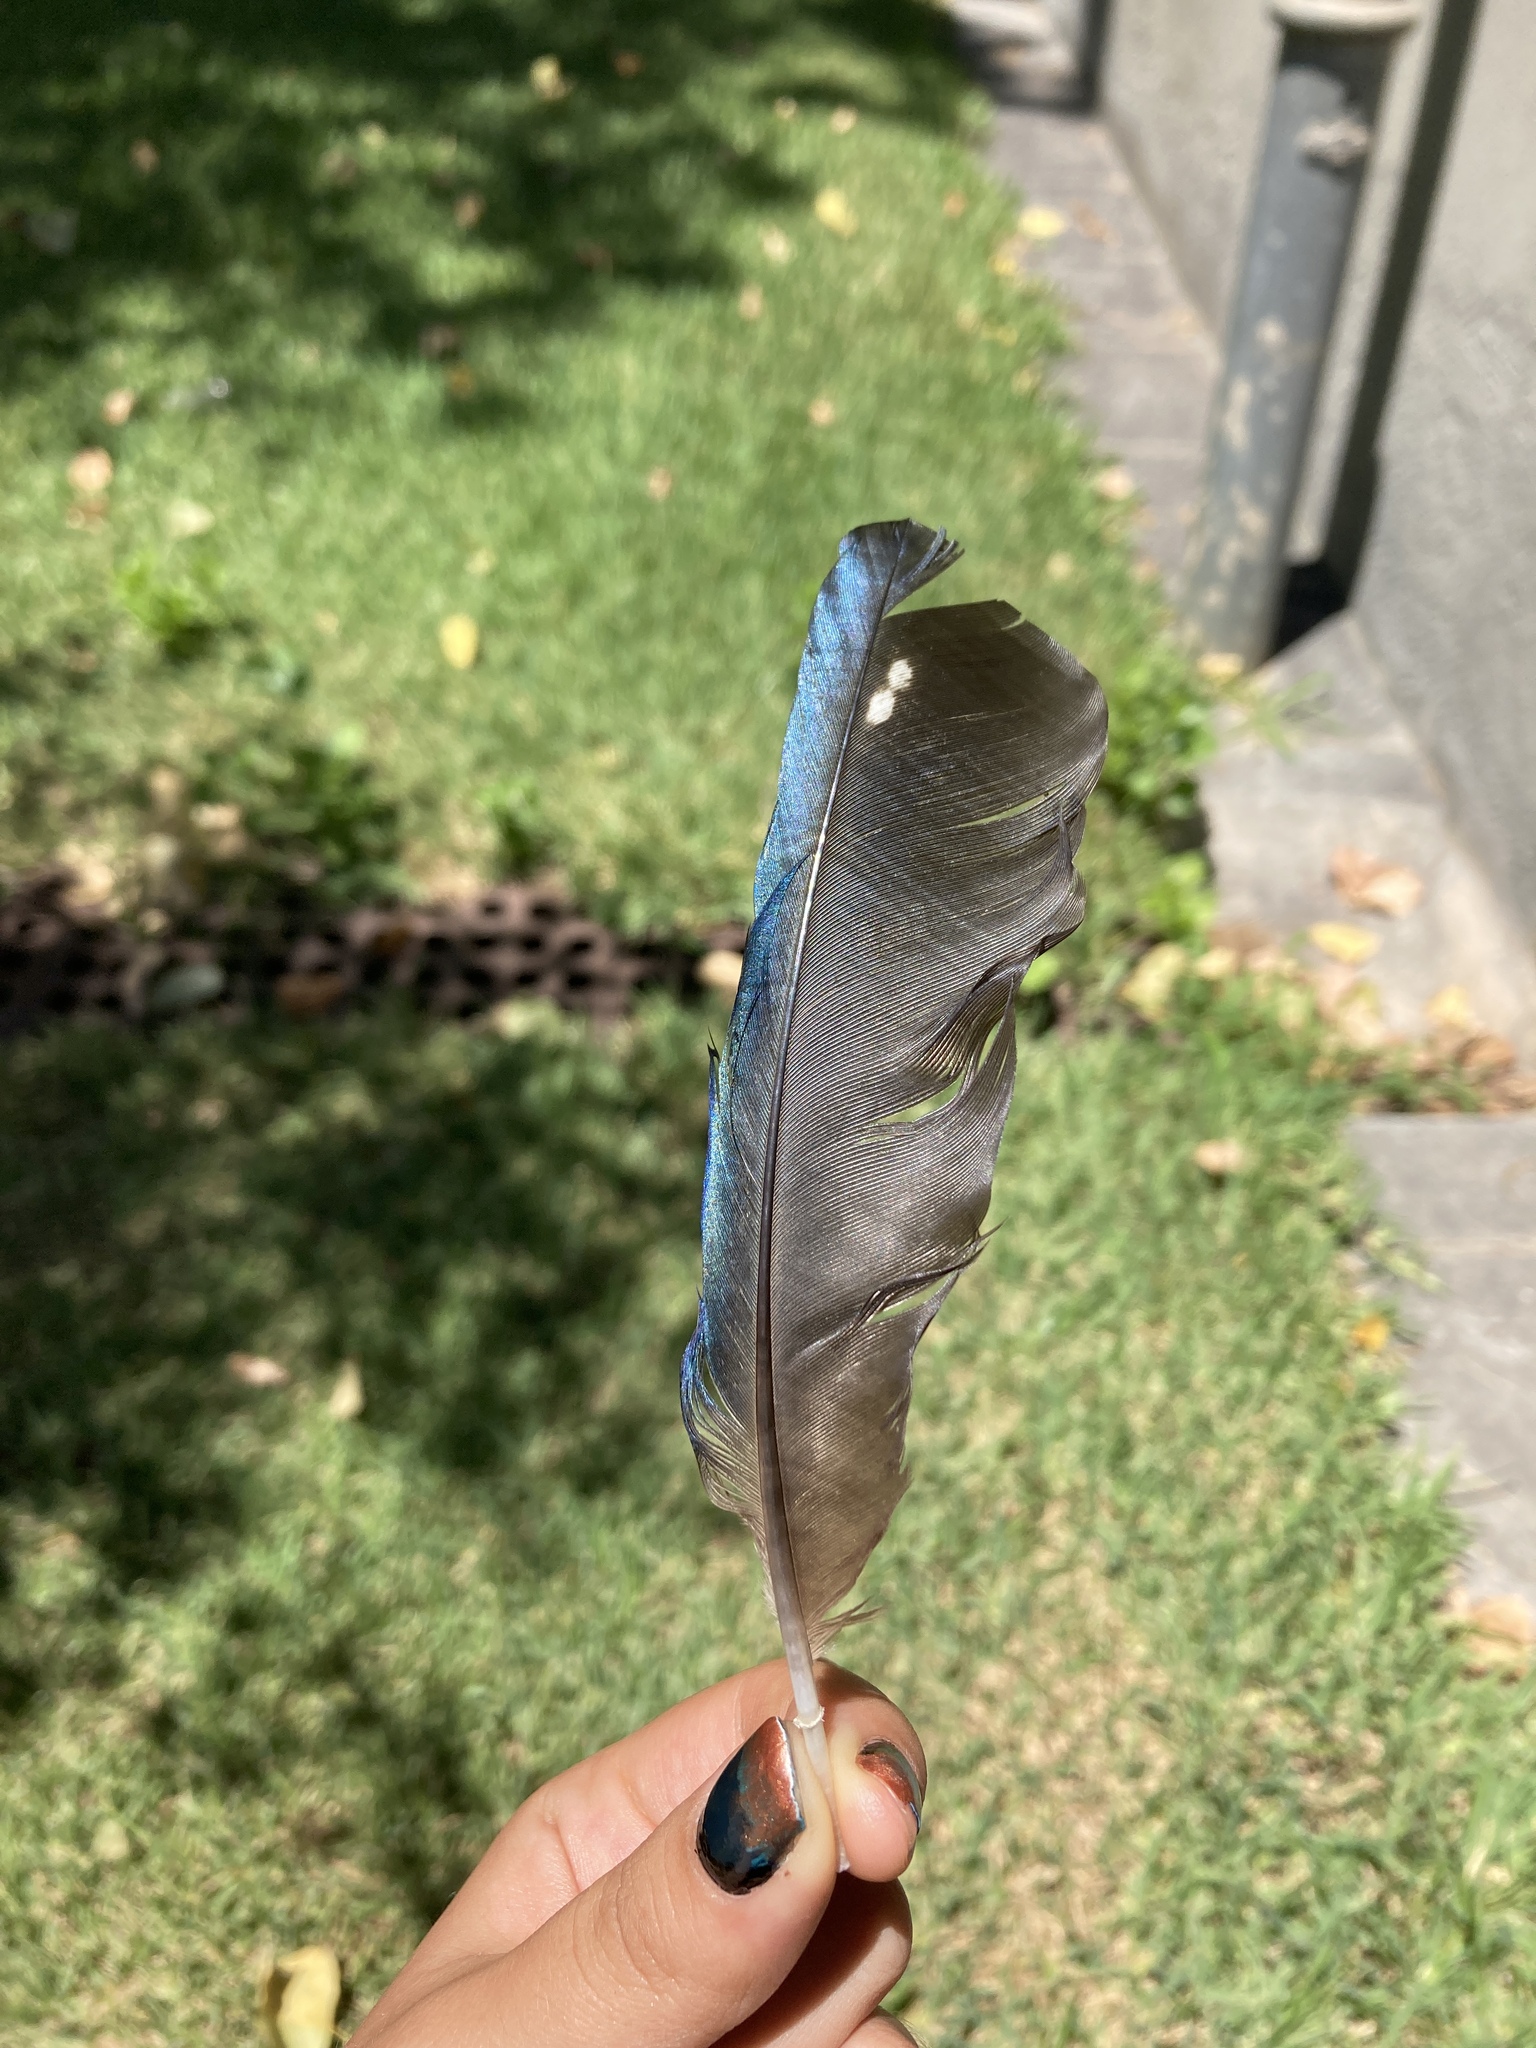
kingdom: Animalia
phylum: Chordata
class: Aves
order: Passeriformes
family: Corvidae
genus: Pica
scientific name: Pica pica
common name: Eurasian magpie
